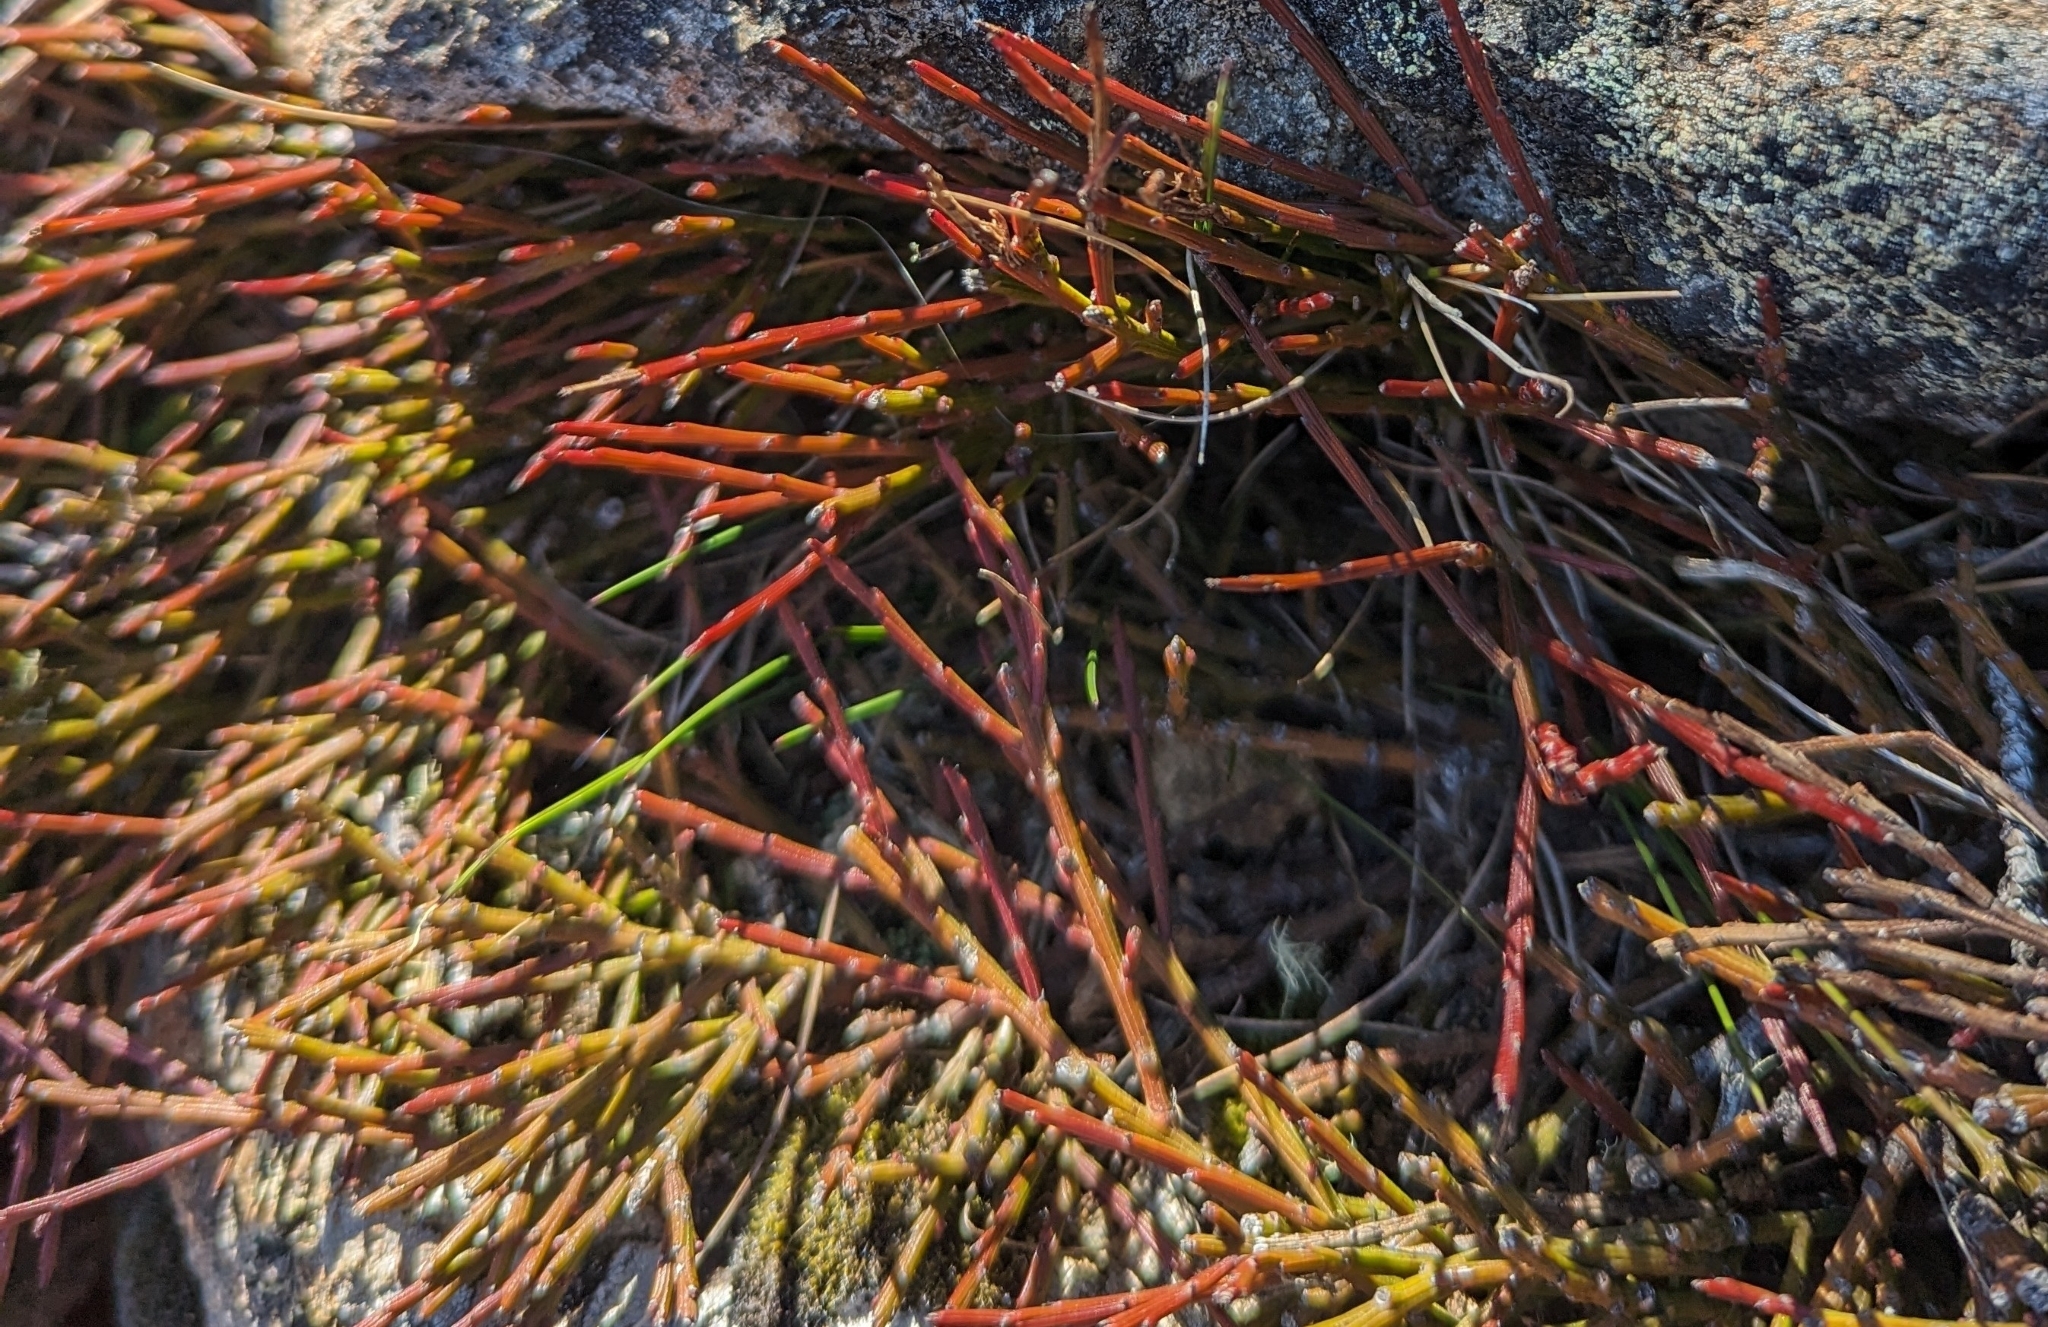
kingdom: Plantae
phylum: Tracheophyta
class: Magnoliopsida
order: Santalales
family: Santalaceae
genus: Exocarpos
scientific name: Exocarpos humifusus
